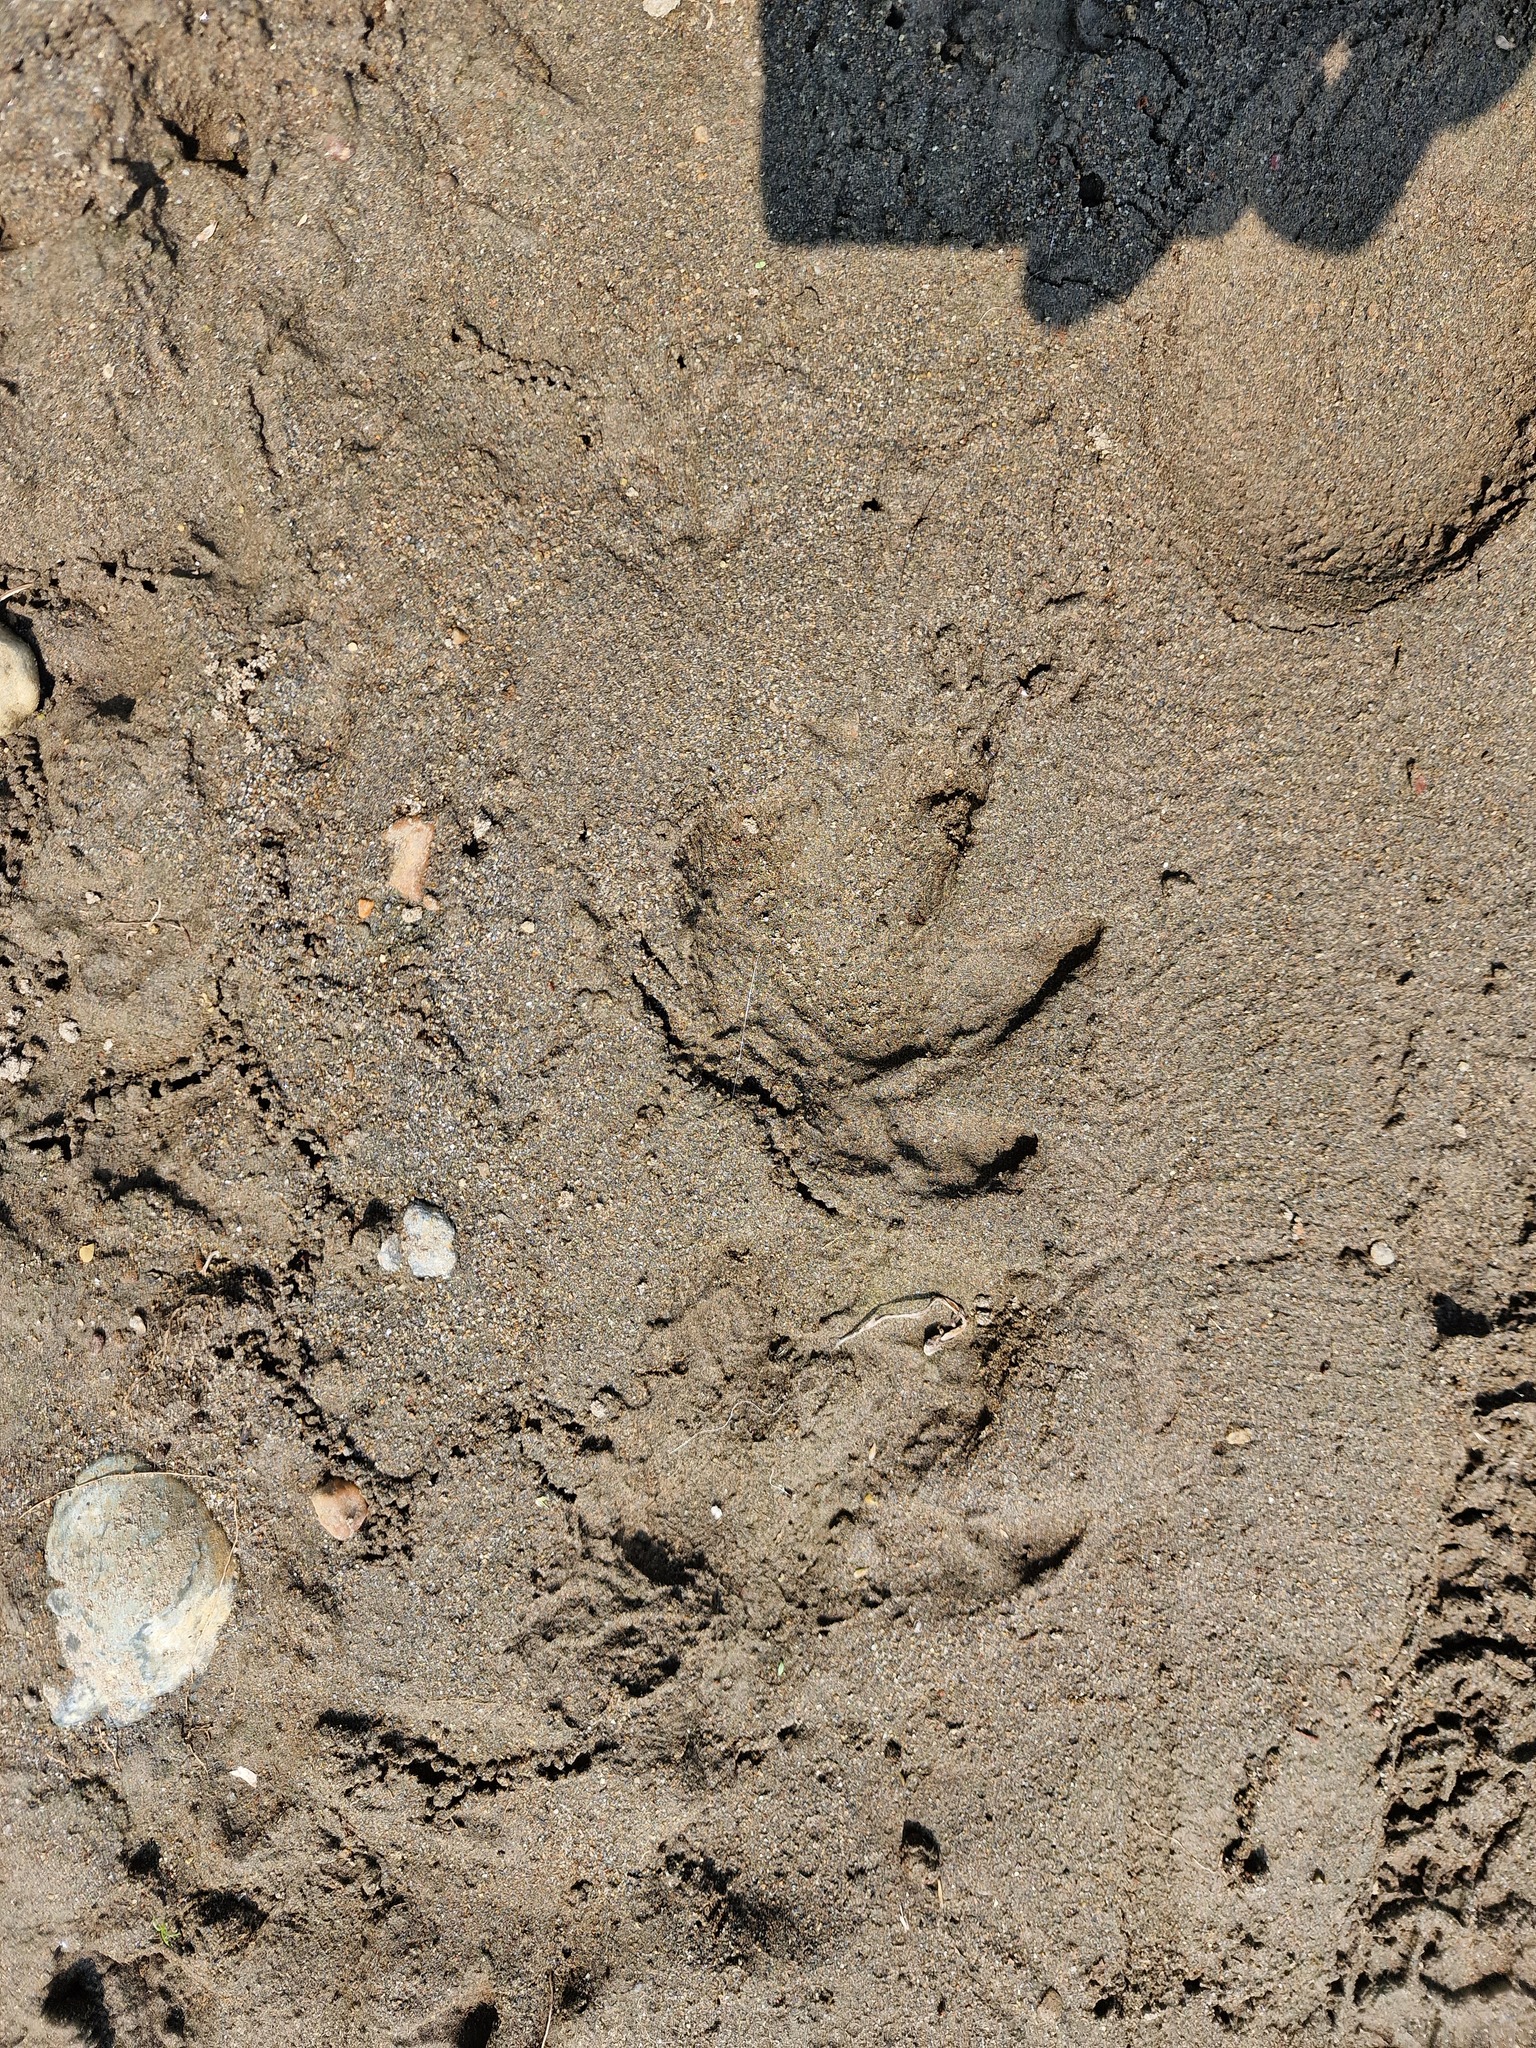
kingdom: Animalia
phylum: Chordata
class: Aves
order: Gruiformes
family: Rallidae
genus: Aramides
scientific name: Aramides cajanea
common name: Gray-necked wood-rail
